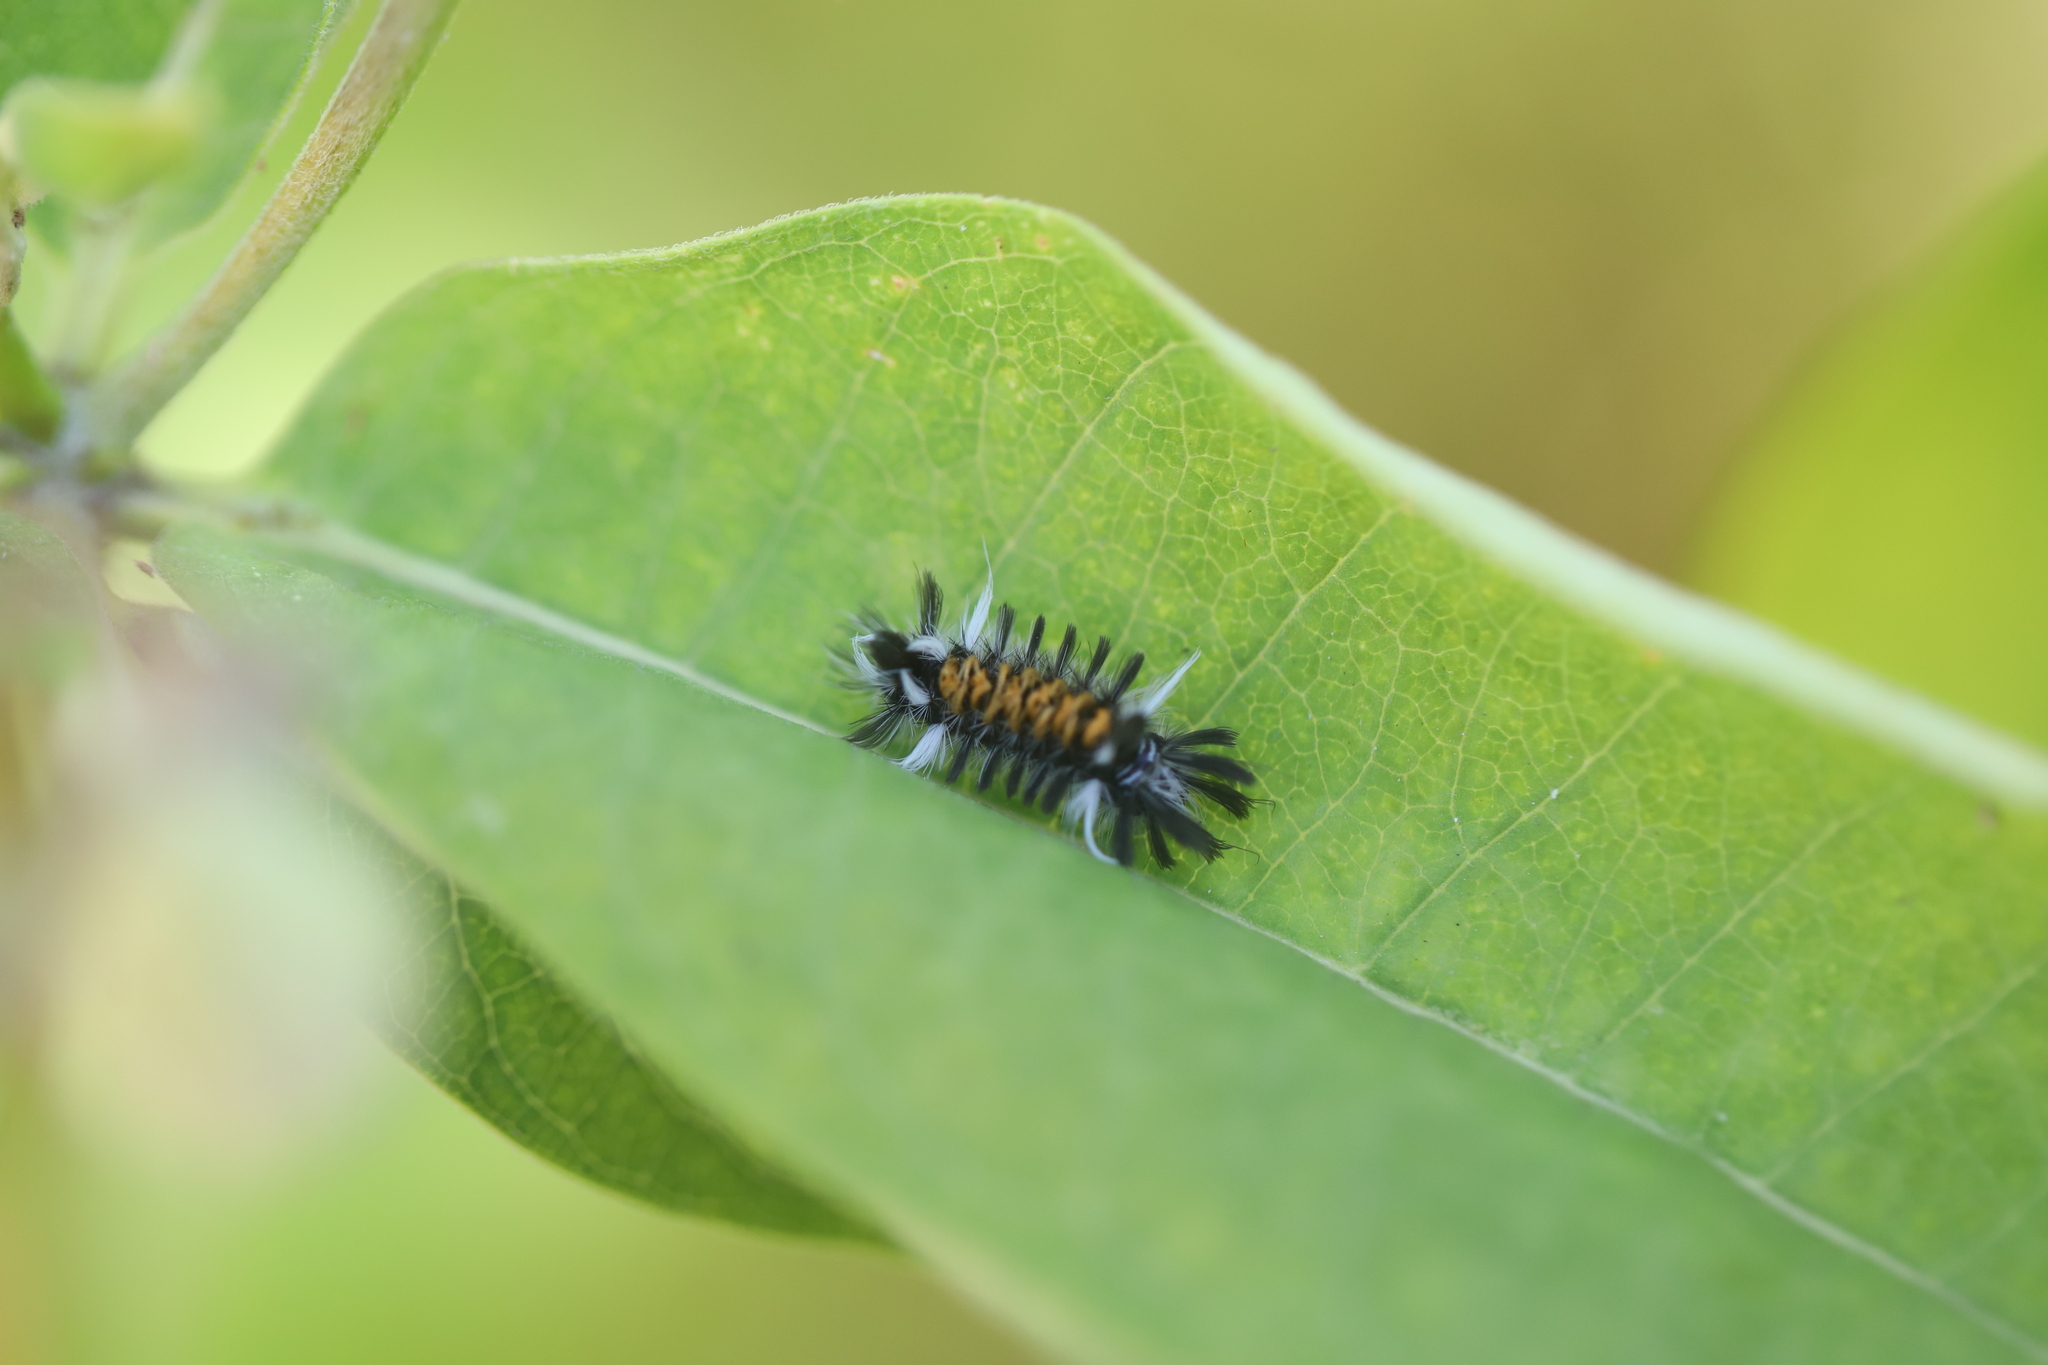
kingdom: Animalia
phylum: Arthropoda
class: Insecta
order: Lepidoptera
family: Erebidae
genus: Euchaetes
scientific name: Euchaetes egle
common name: Milkweed tussock moth
